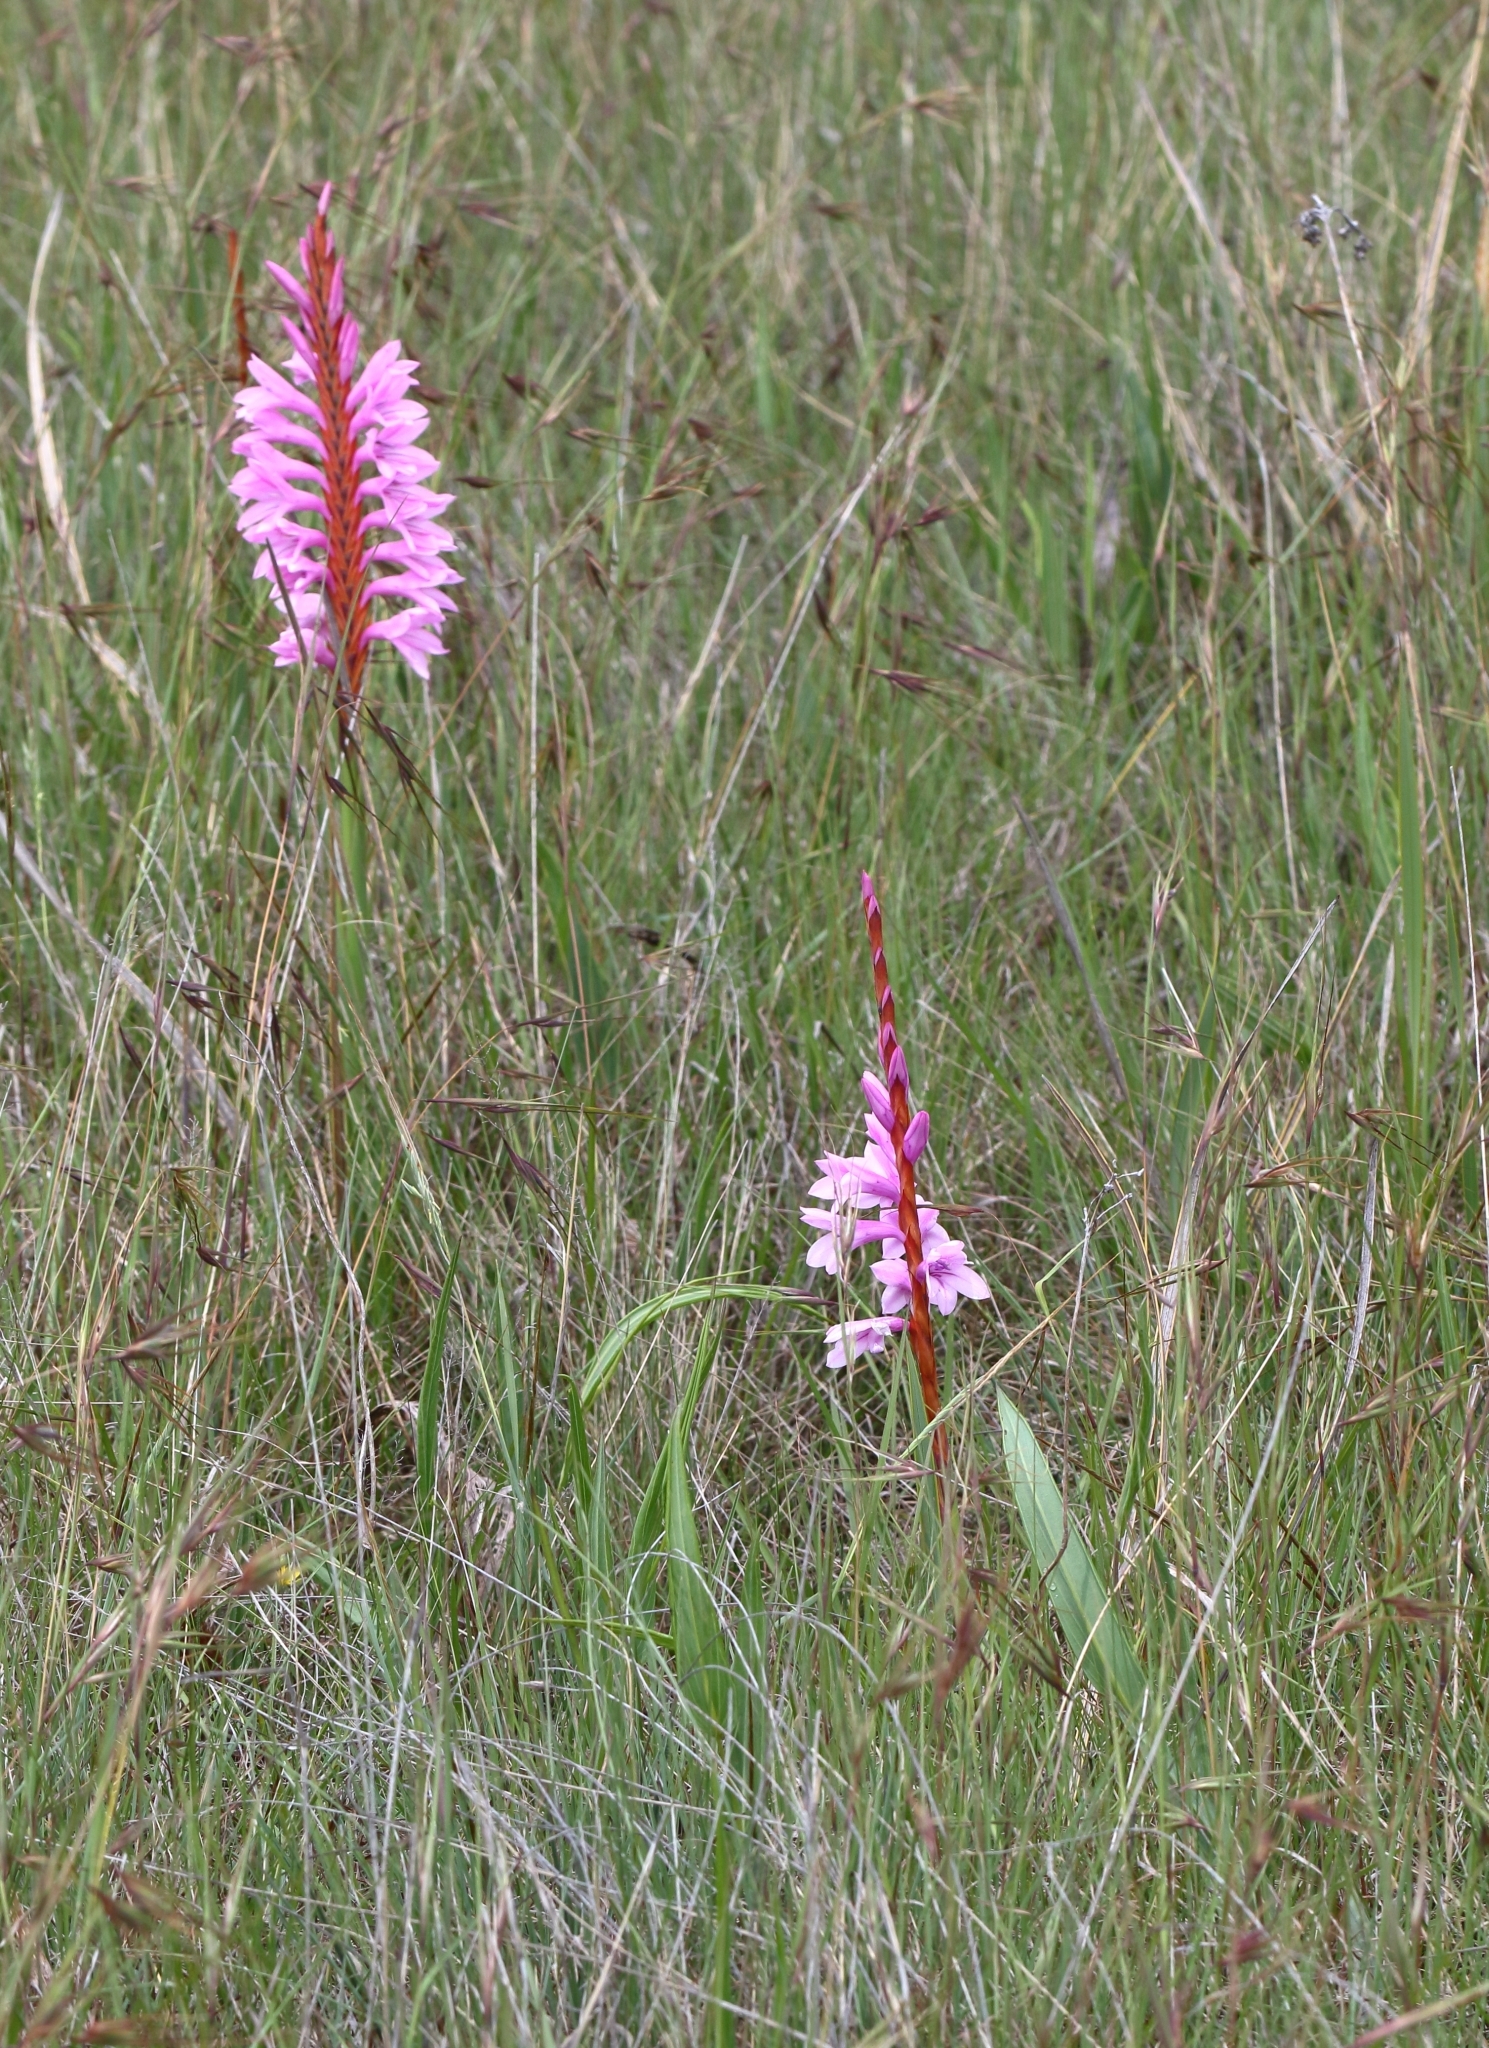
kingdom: Plantae
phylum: Tracheophyta
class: Liliopsida
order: Asparagales
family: Iridaceae
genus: Watsonia
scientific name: Watsonia lepida
